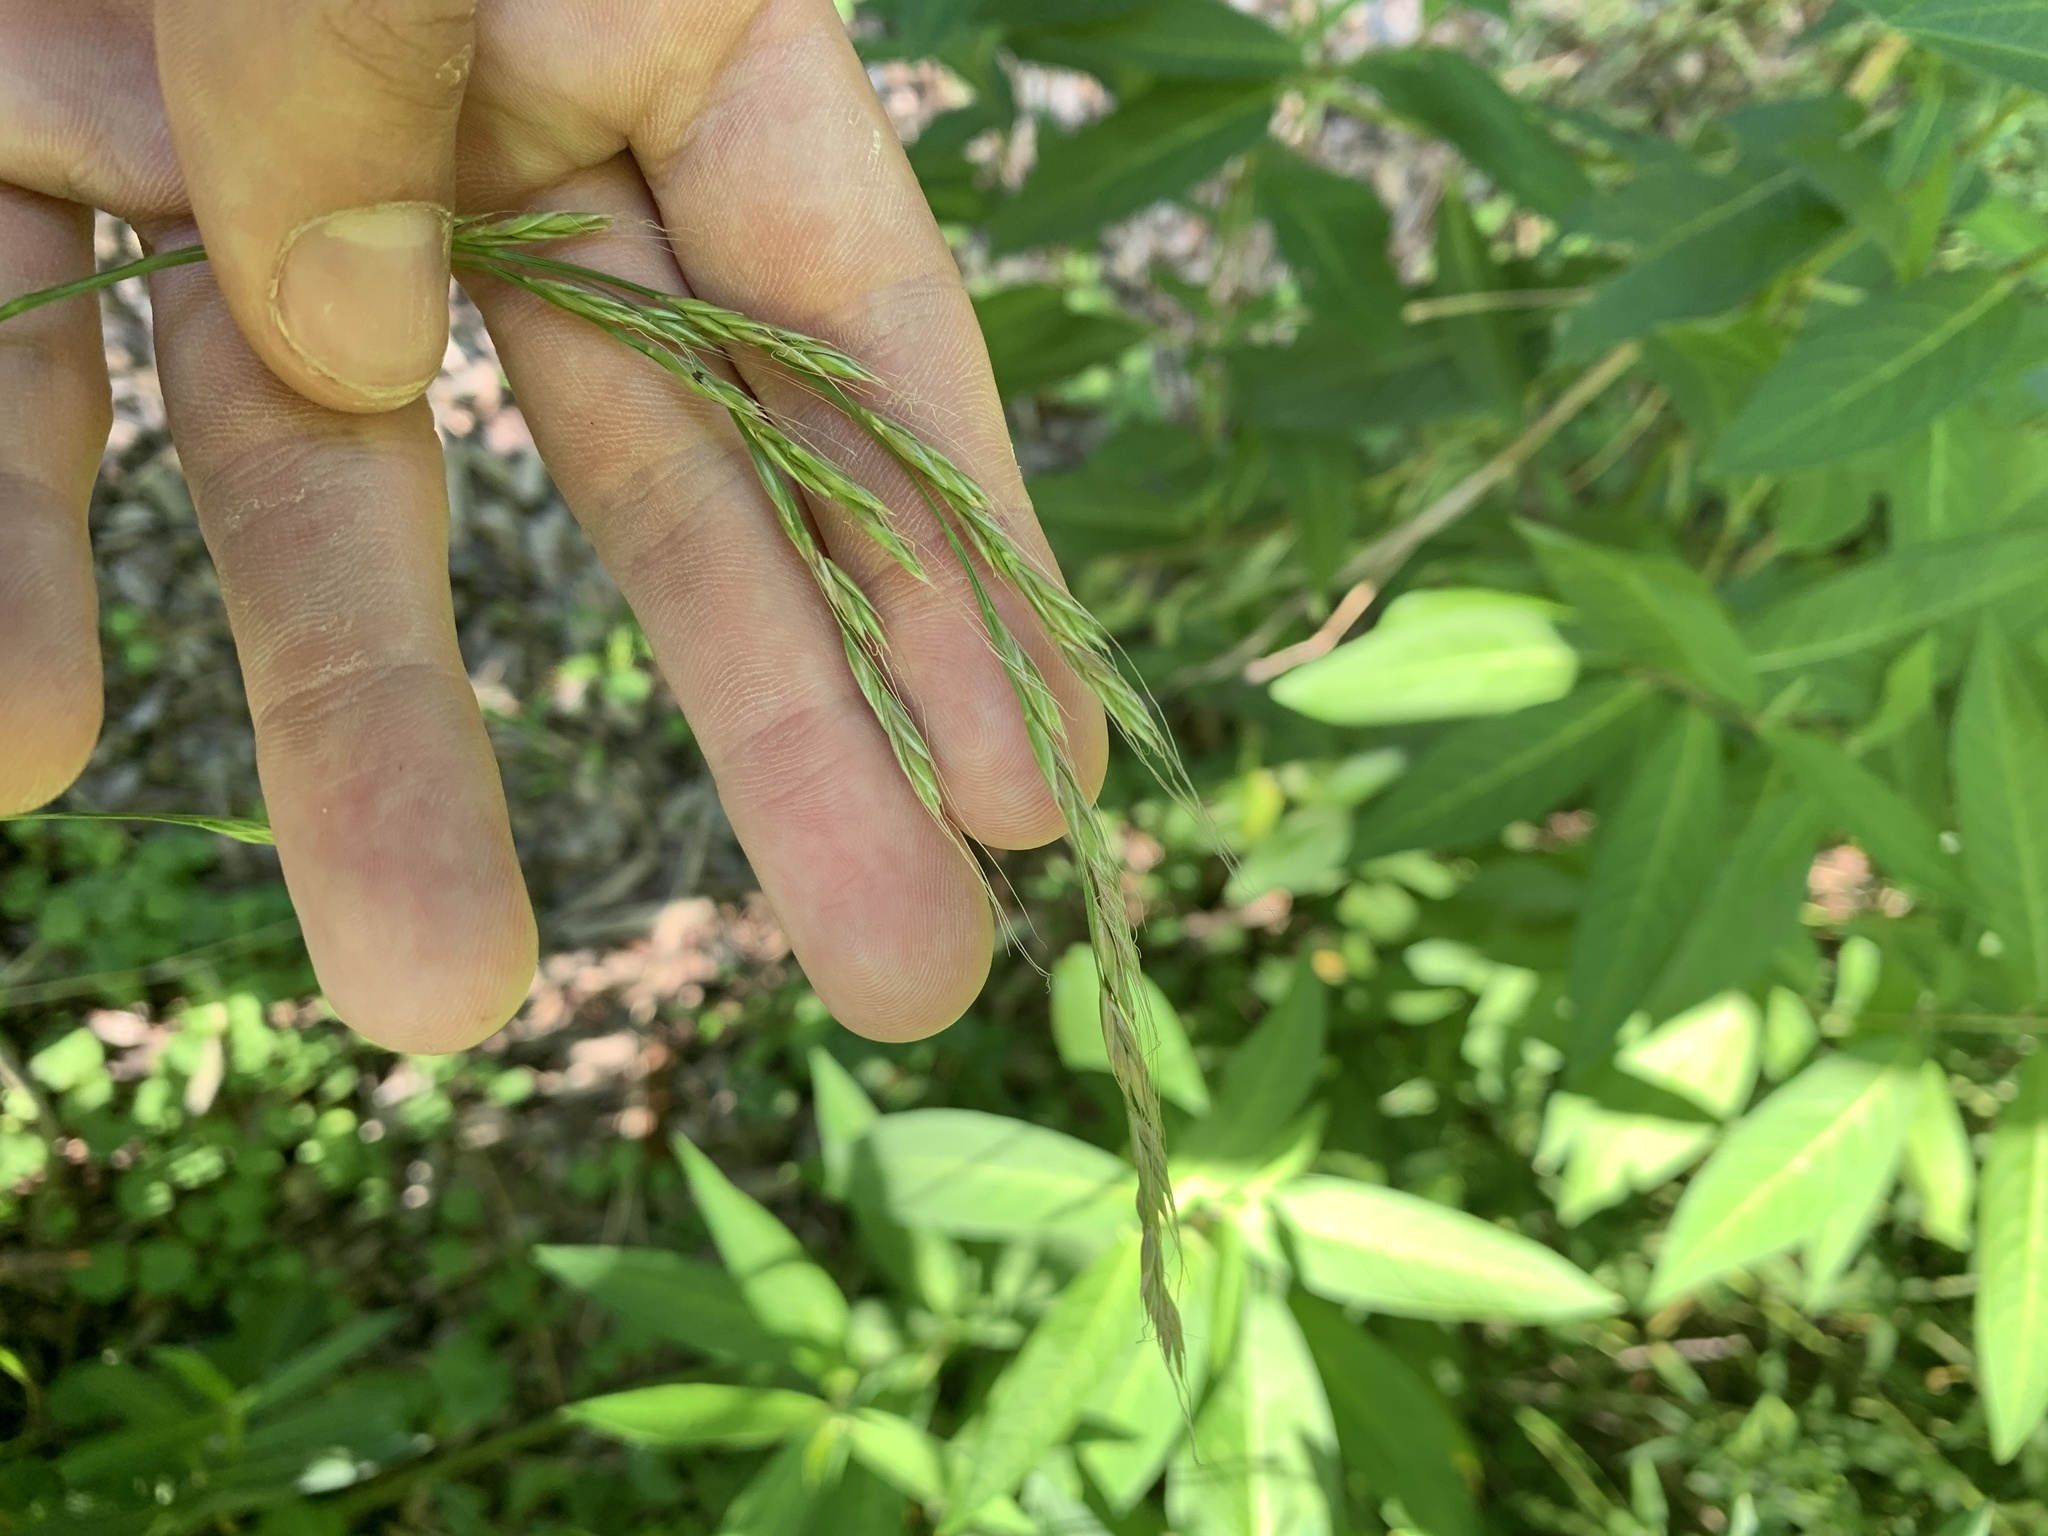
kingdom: Plantae
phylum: Tracheophyta
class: Liliopsida
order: Poales
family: Poaceae
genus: Lolium
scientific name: Lolium giganteum
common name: Giant fescue
